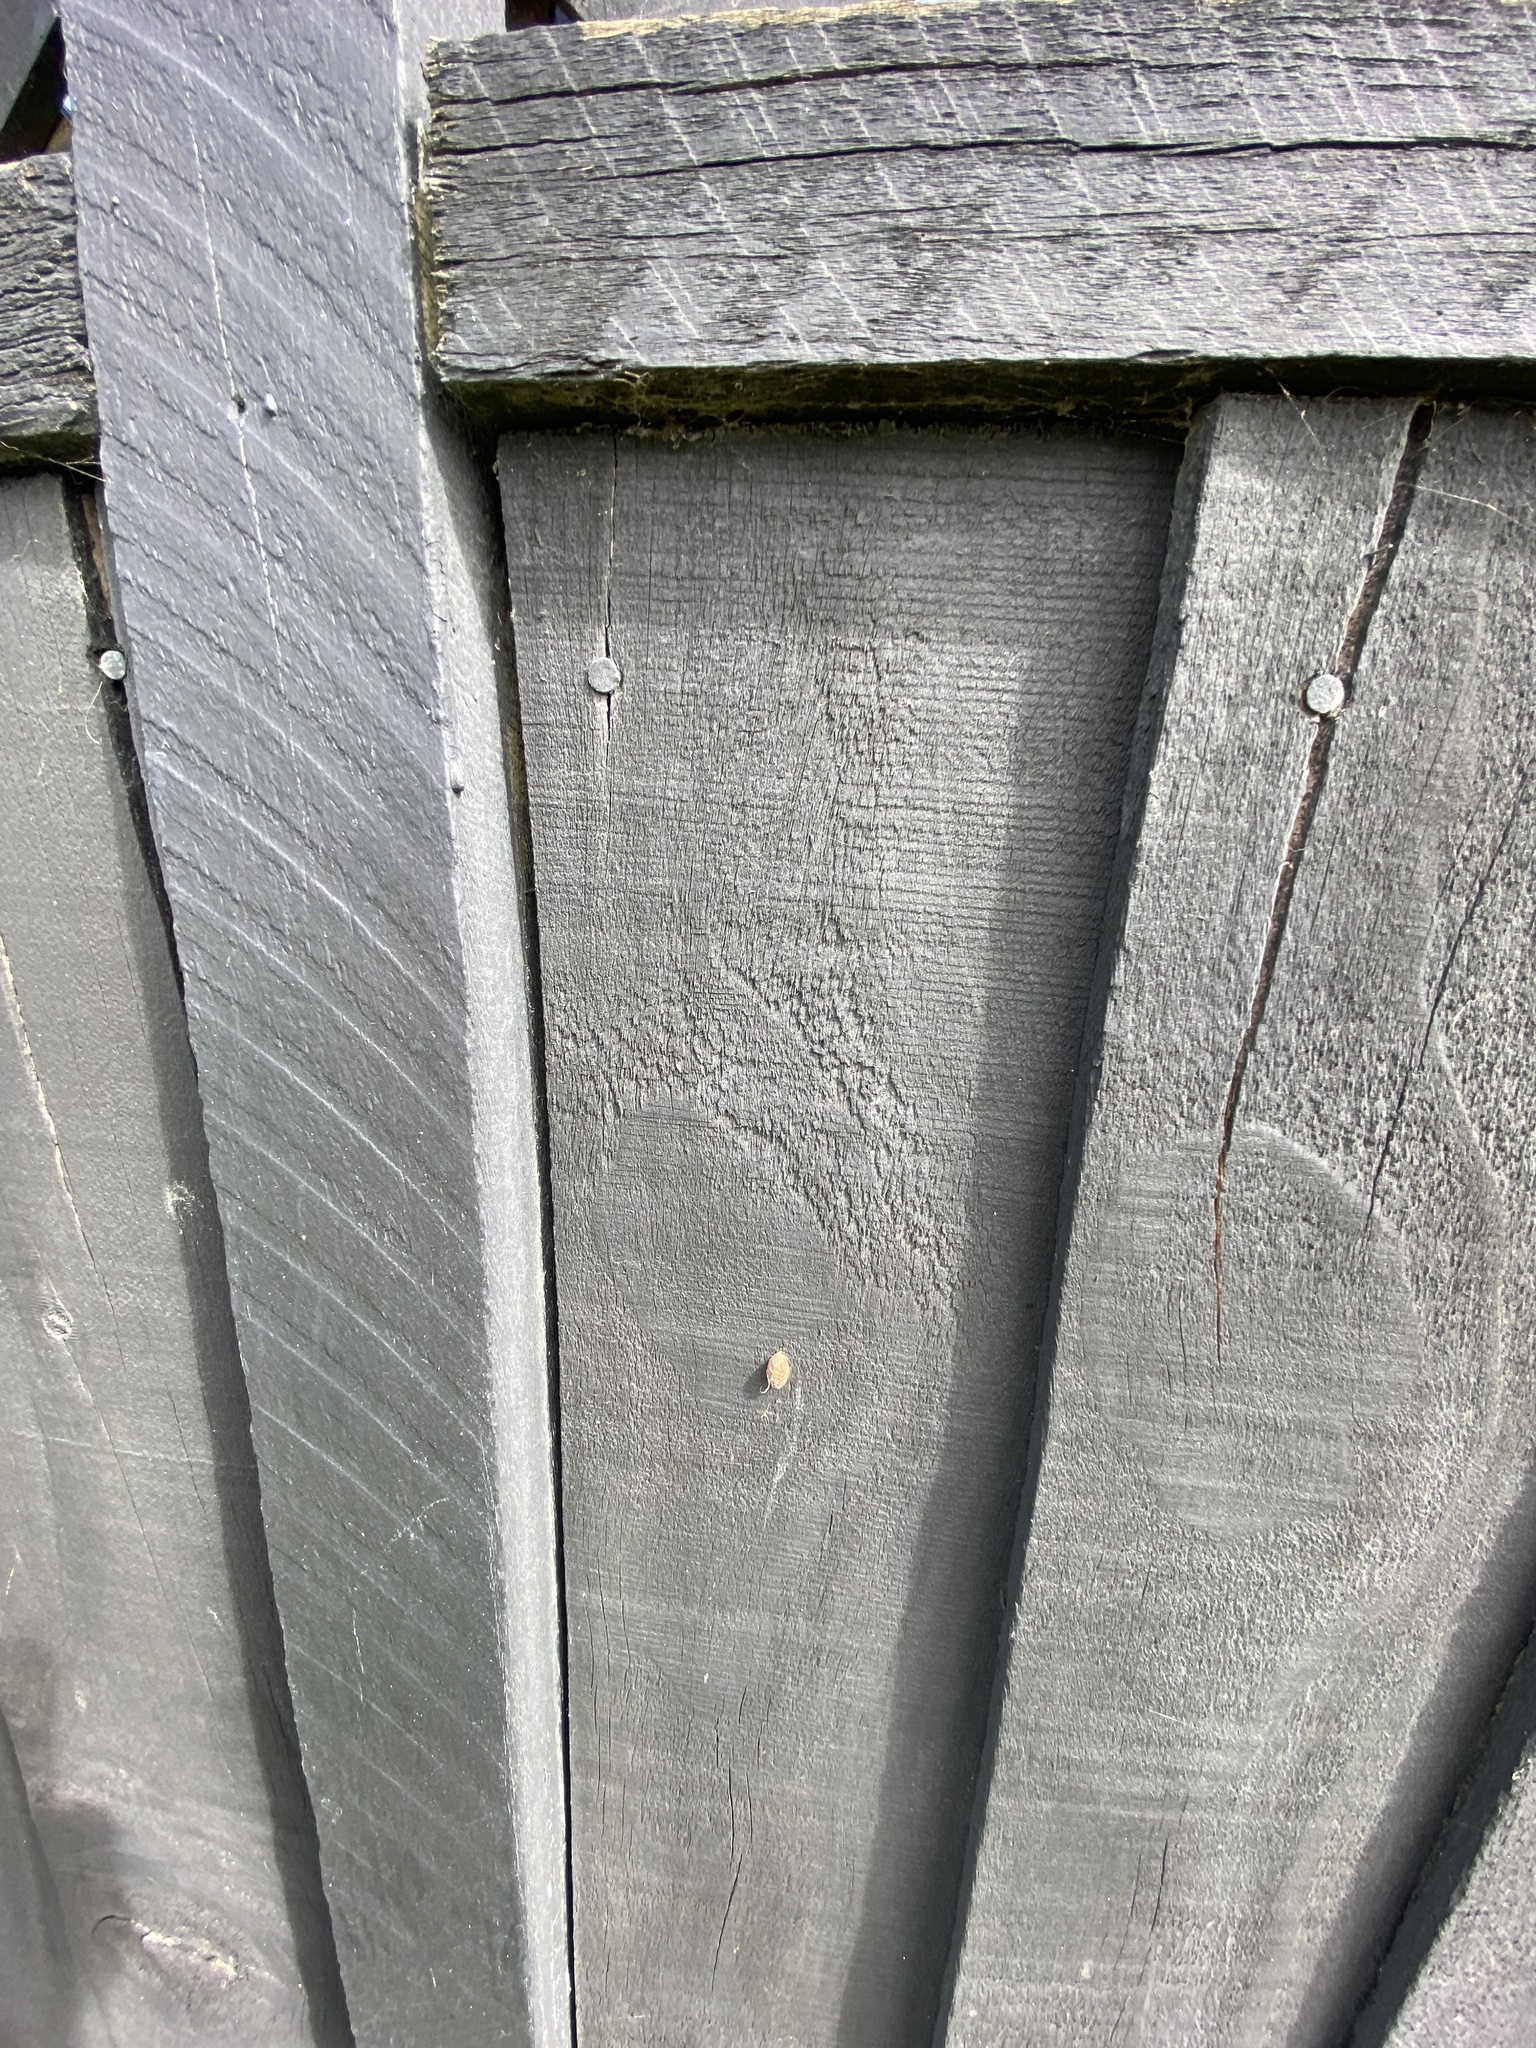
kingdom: Animalia
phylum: Arthropoda
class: Insecta
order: Mantodea
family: Mantidae
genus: Orthodera
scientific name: Orthodera novaezealandiae
